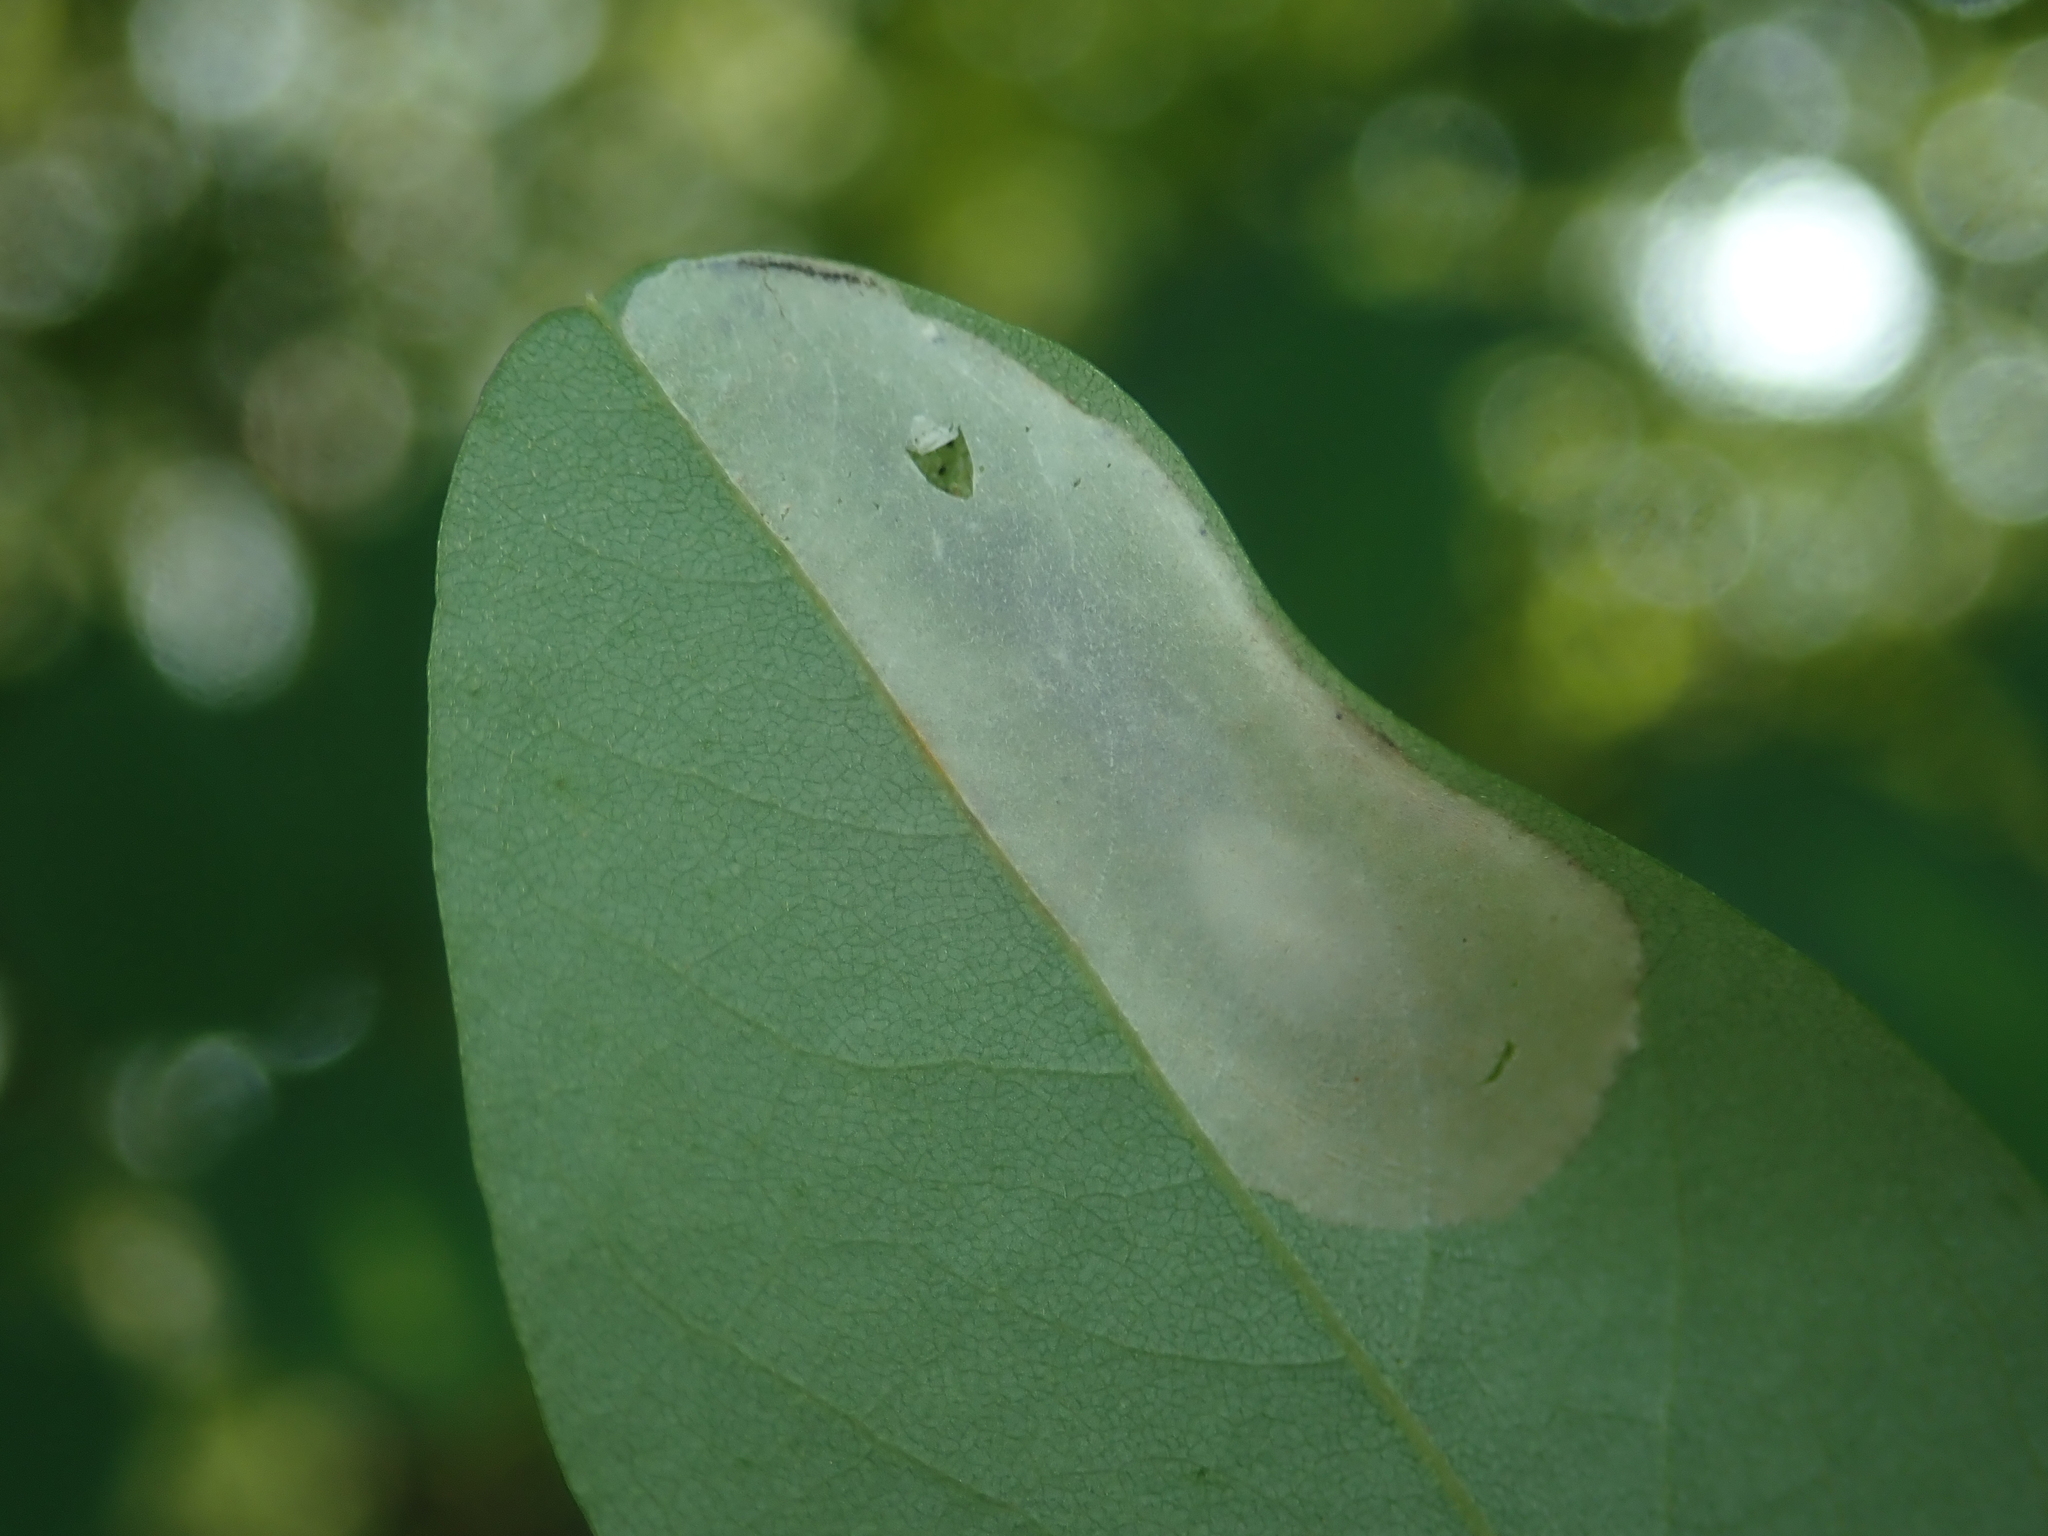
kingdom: Animalia
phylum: Arthropoda
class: Insecta
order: Lepidoptera
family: Gracillariidae
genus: Macrosaccus
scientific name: Macrosaccus robiniella
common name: Leaf blotch miner moth
